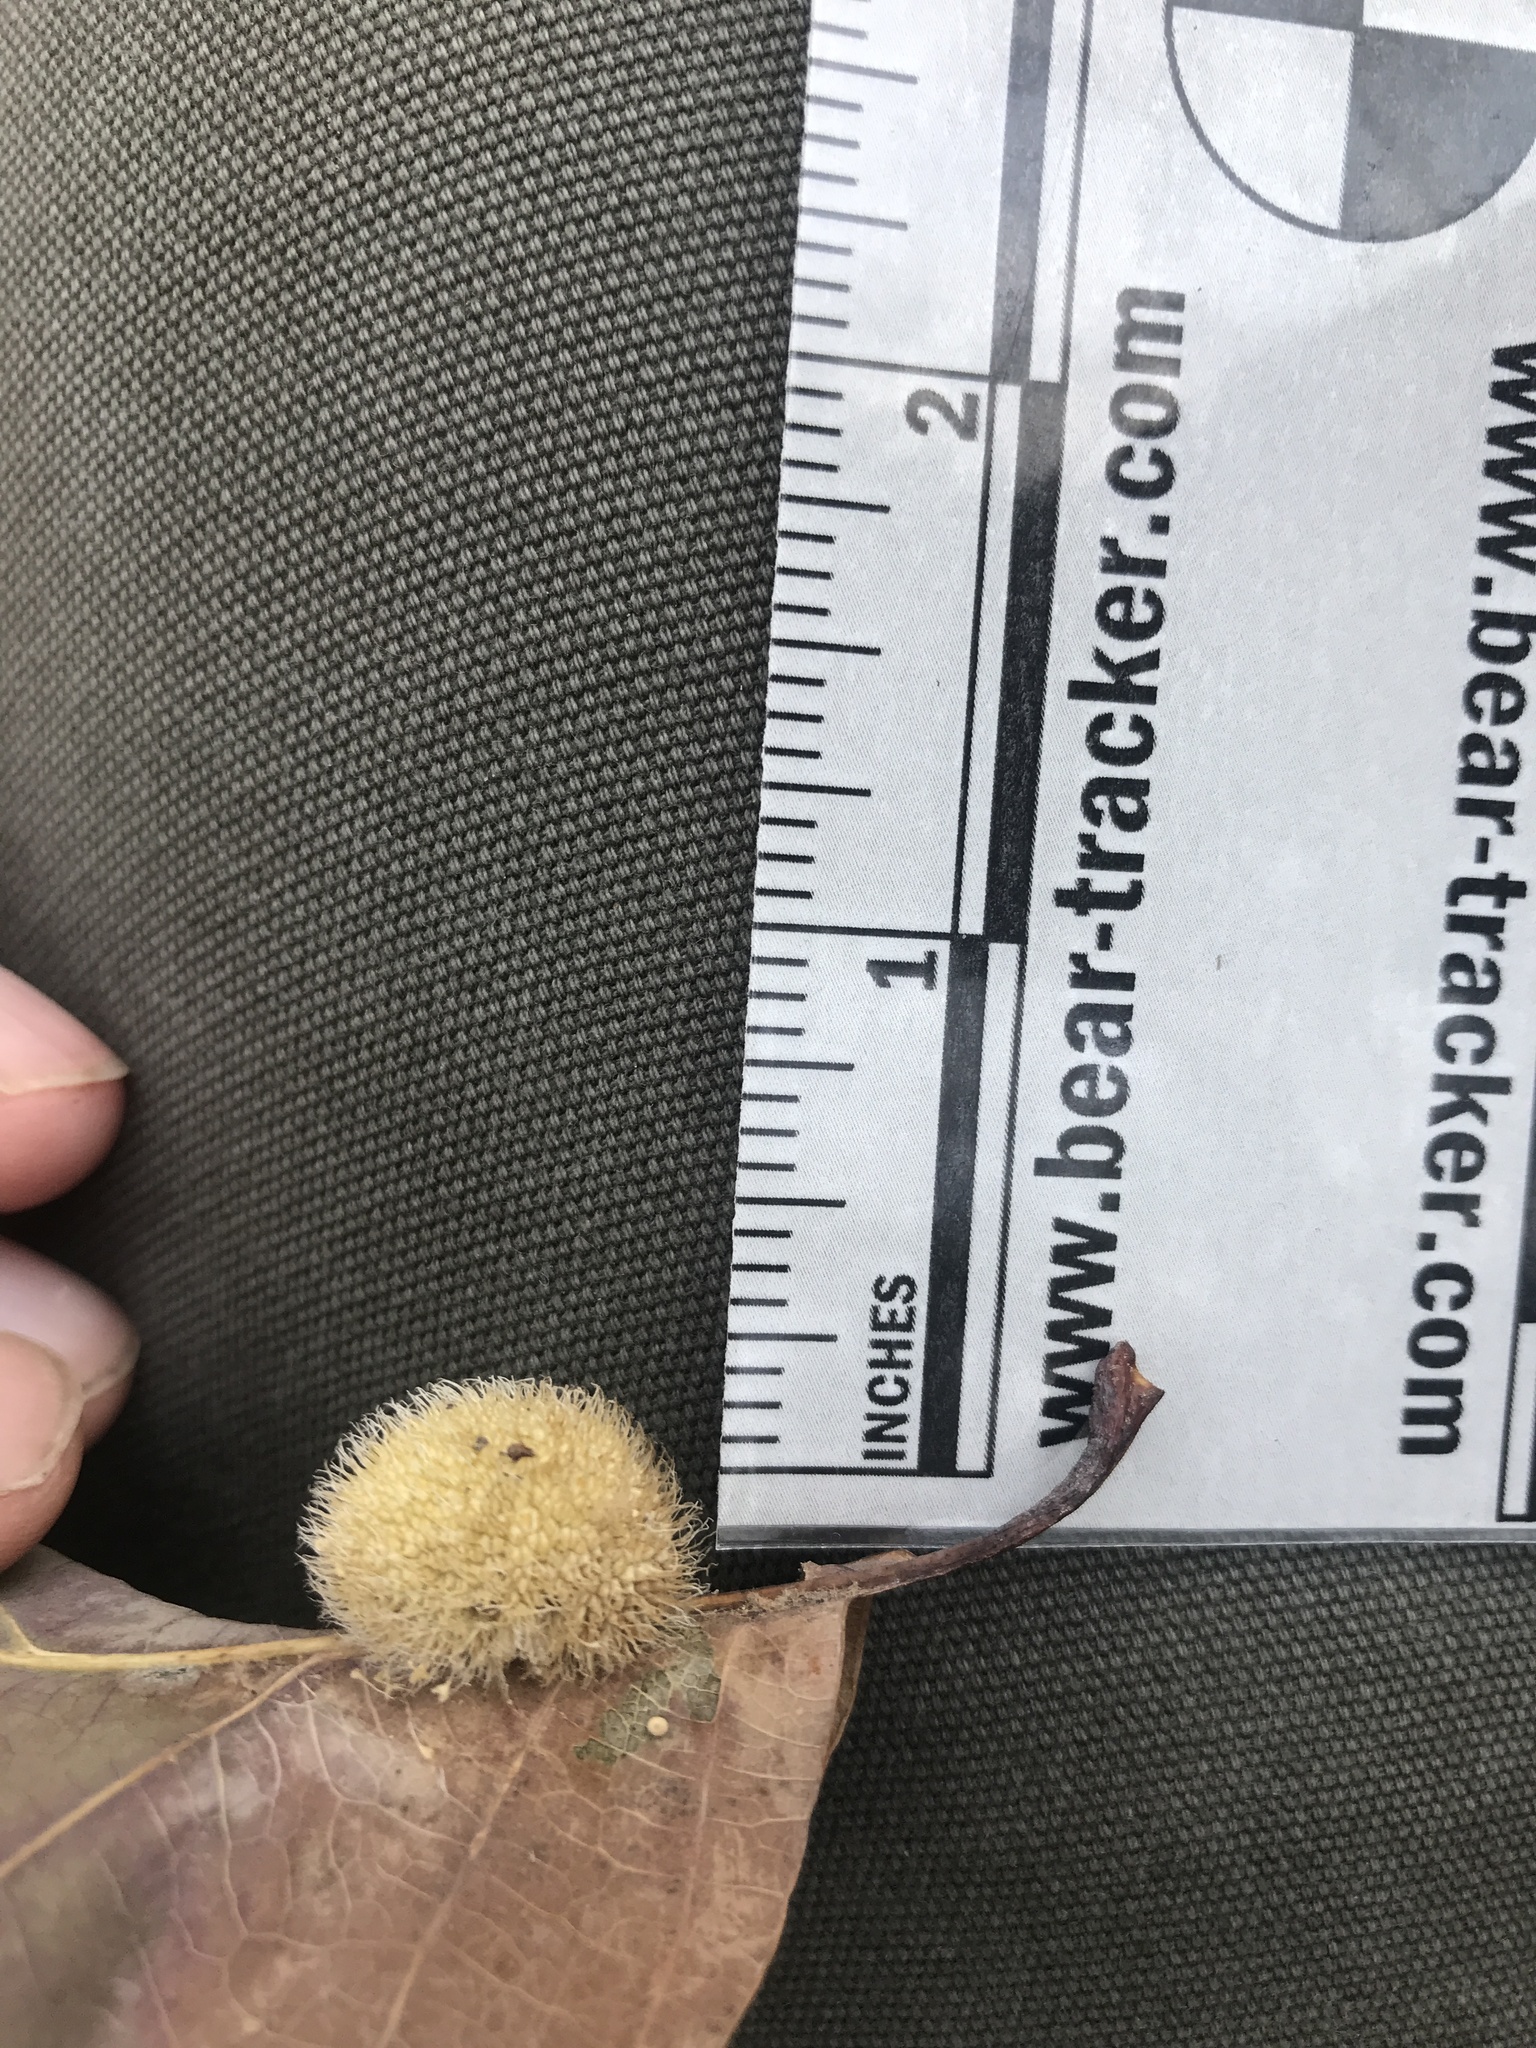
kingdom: Animalia
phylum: Arthropoda
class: Insecta
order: Hymenoptera
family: Cynipidae
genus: Acraspis
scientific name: Acraspis erinacei
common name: Hedgehog gall wasp
